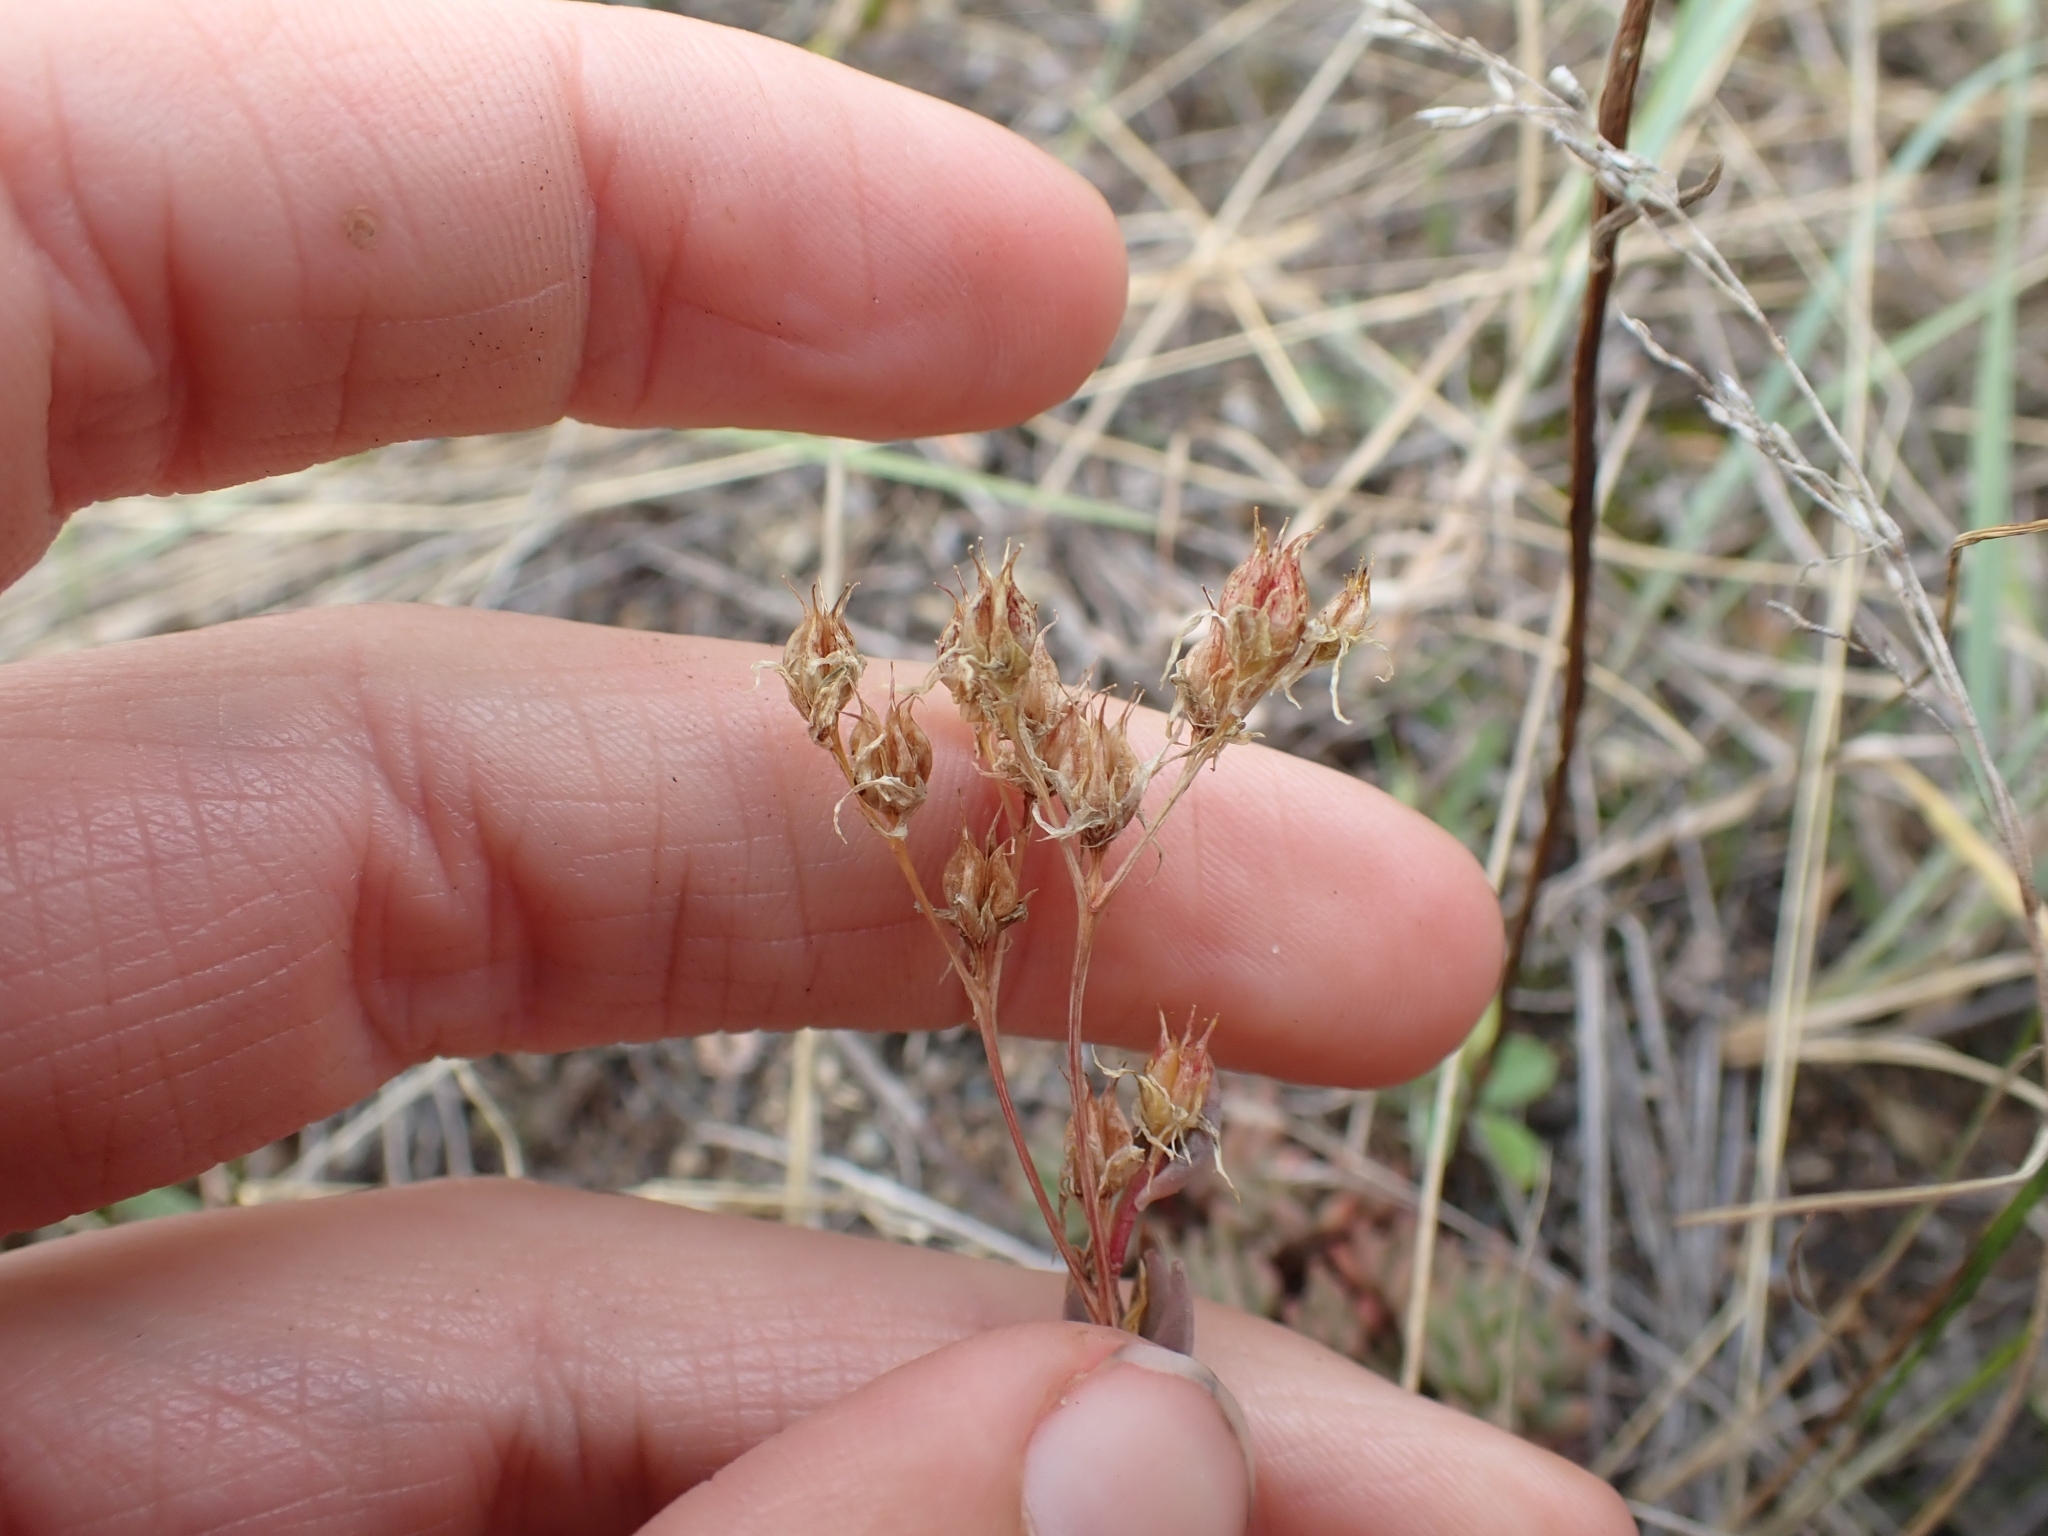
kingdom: Plantae
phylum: Tracheophyta
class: Magnoliopsida
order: Saxifragales
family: Crassulaceae
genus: Sedum
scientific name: Sedum lanceolatum
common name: Common stonecrop
